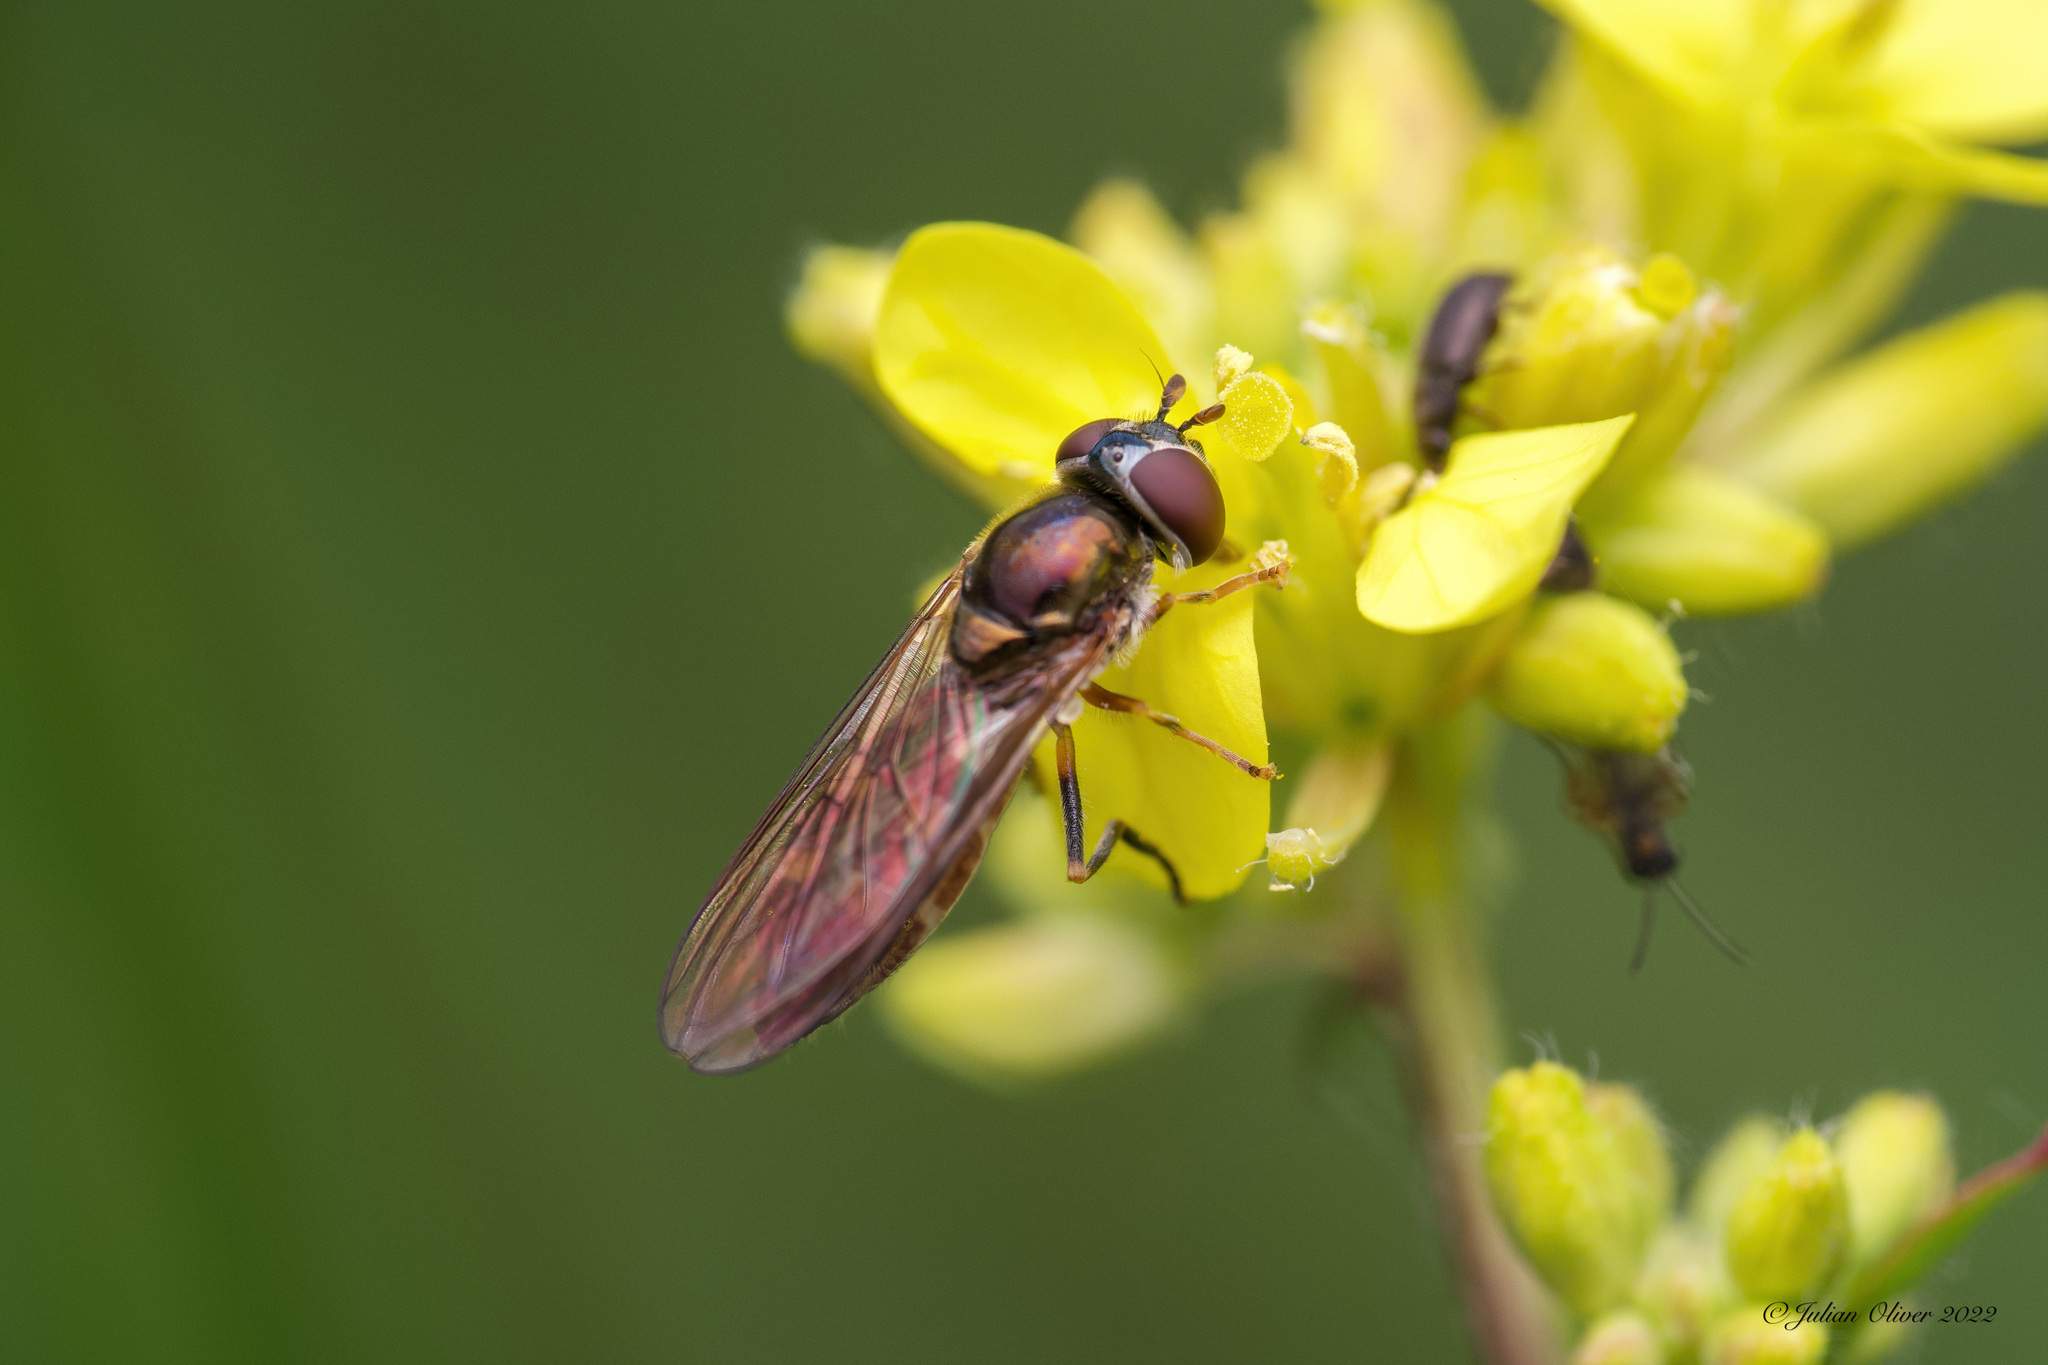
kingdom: Animalia
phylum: Arthropoda
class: Insecta
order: Diptera
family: Syrphidae
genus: Platycheirus
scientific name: Platycheirus
